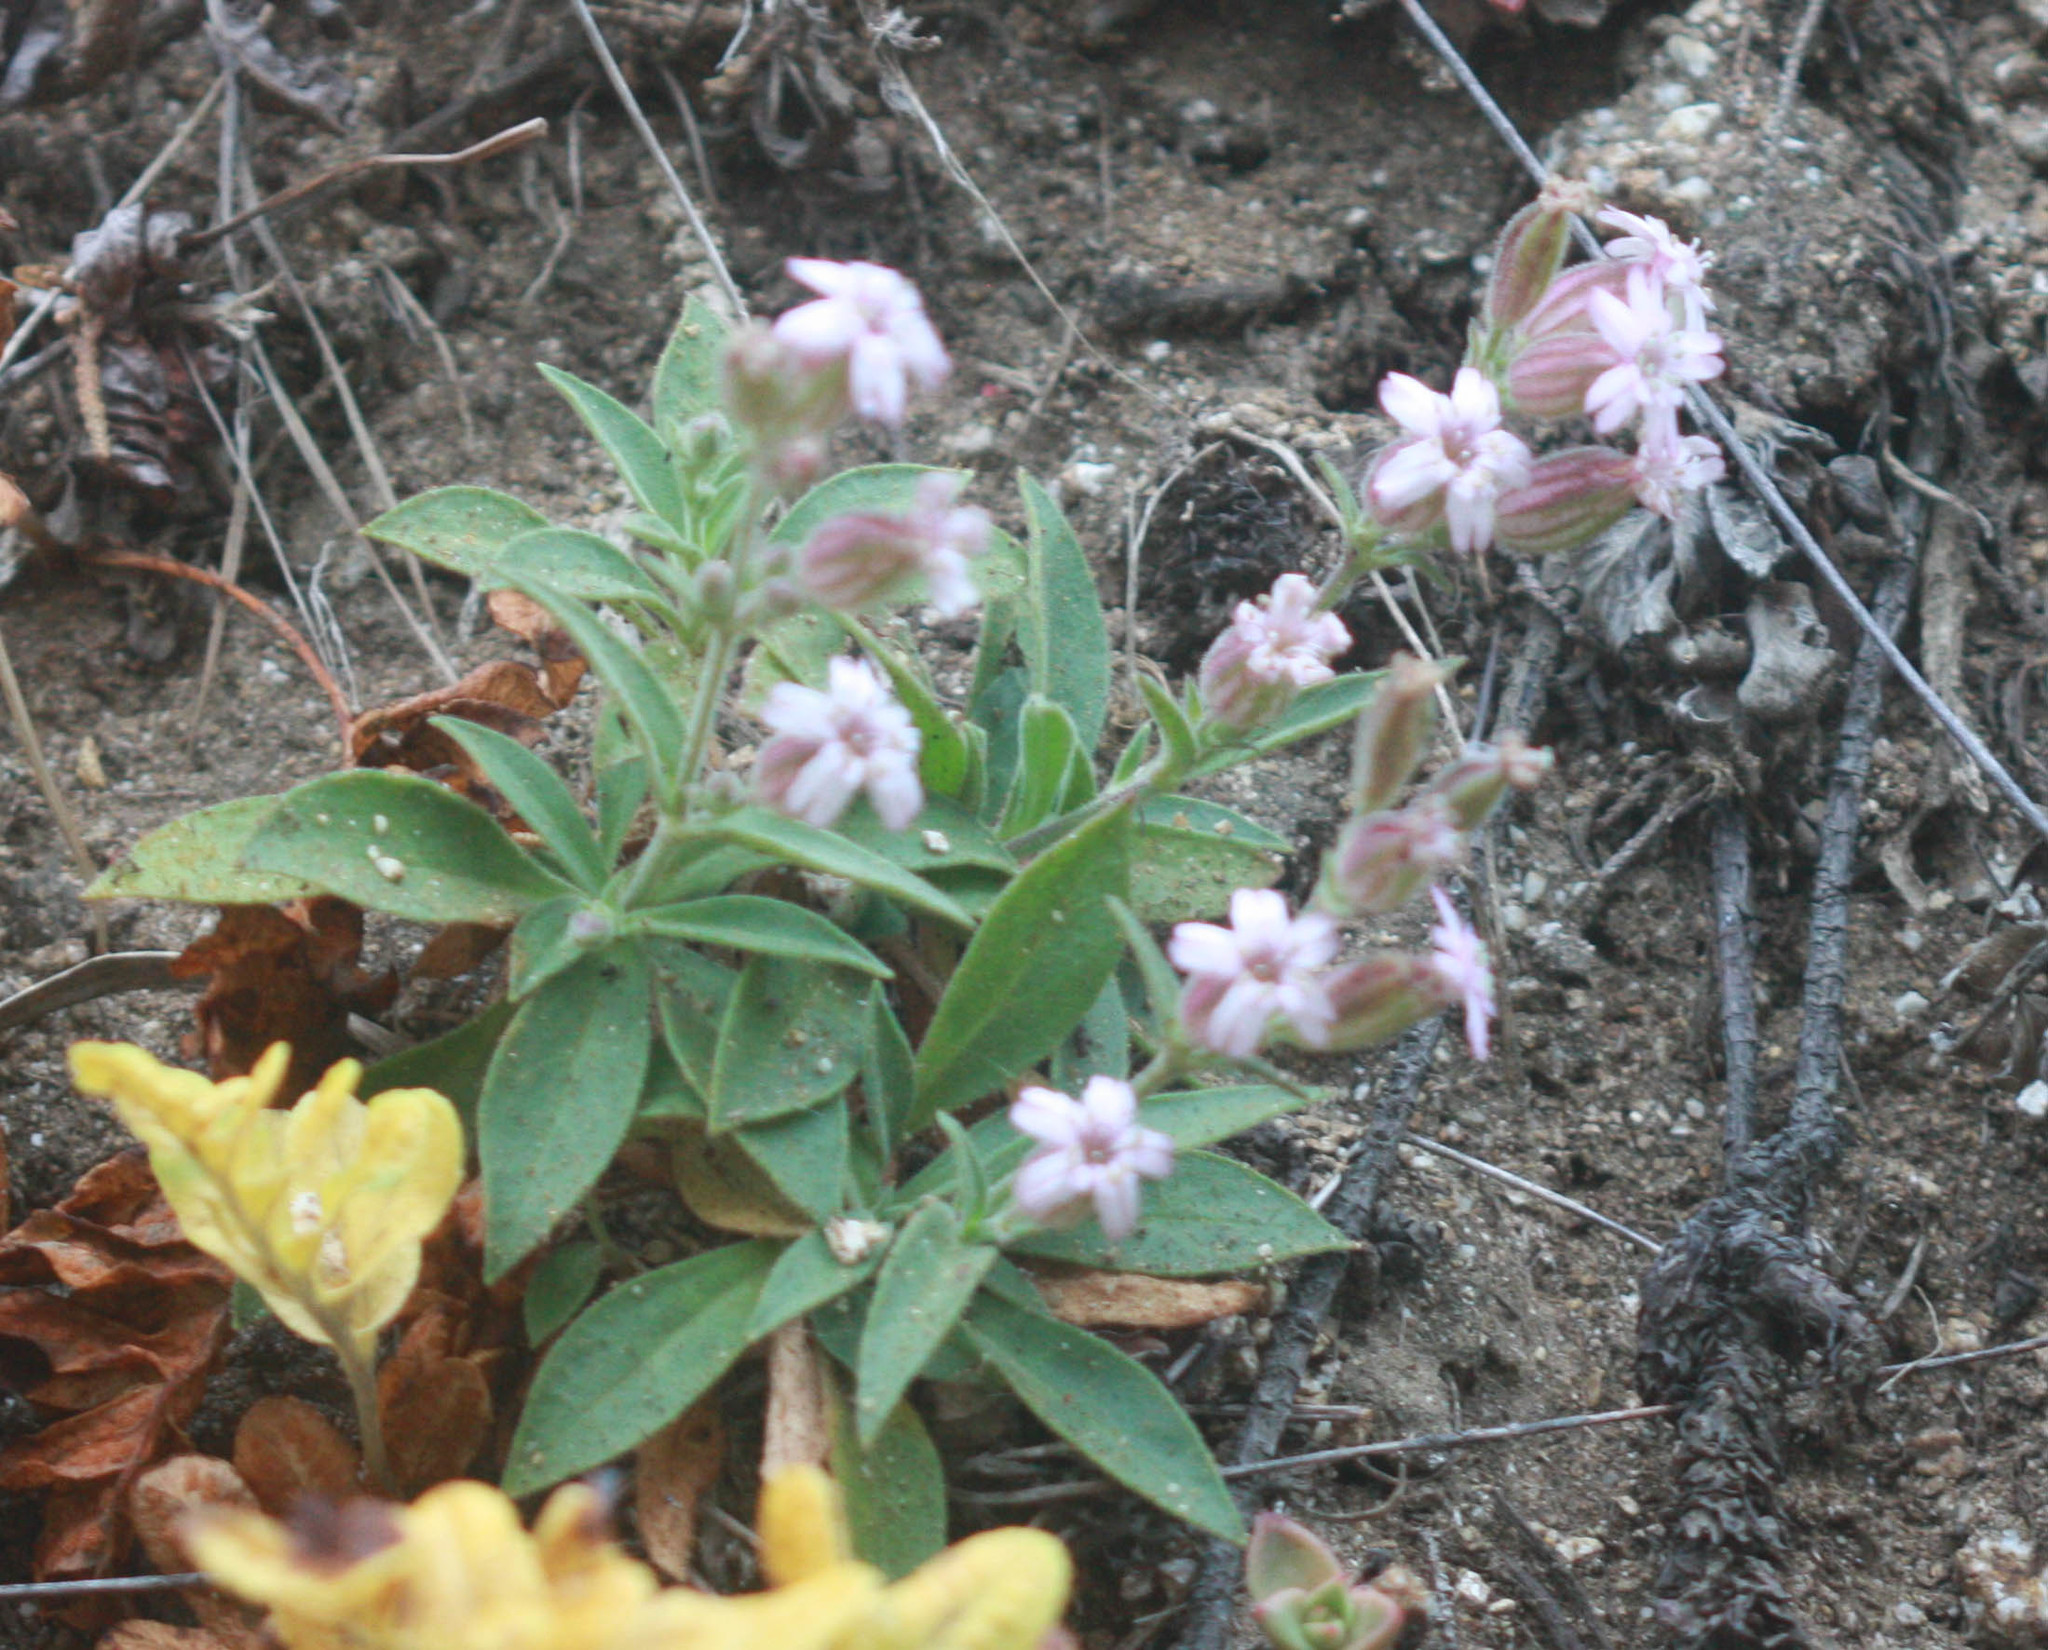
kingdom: Plantae
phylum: Tracheophyta
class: Magnoliopsida
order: Caryophyllales
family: Caryophyllaceae
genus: Silene
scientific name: Silene verecunda
